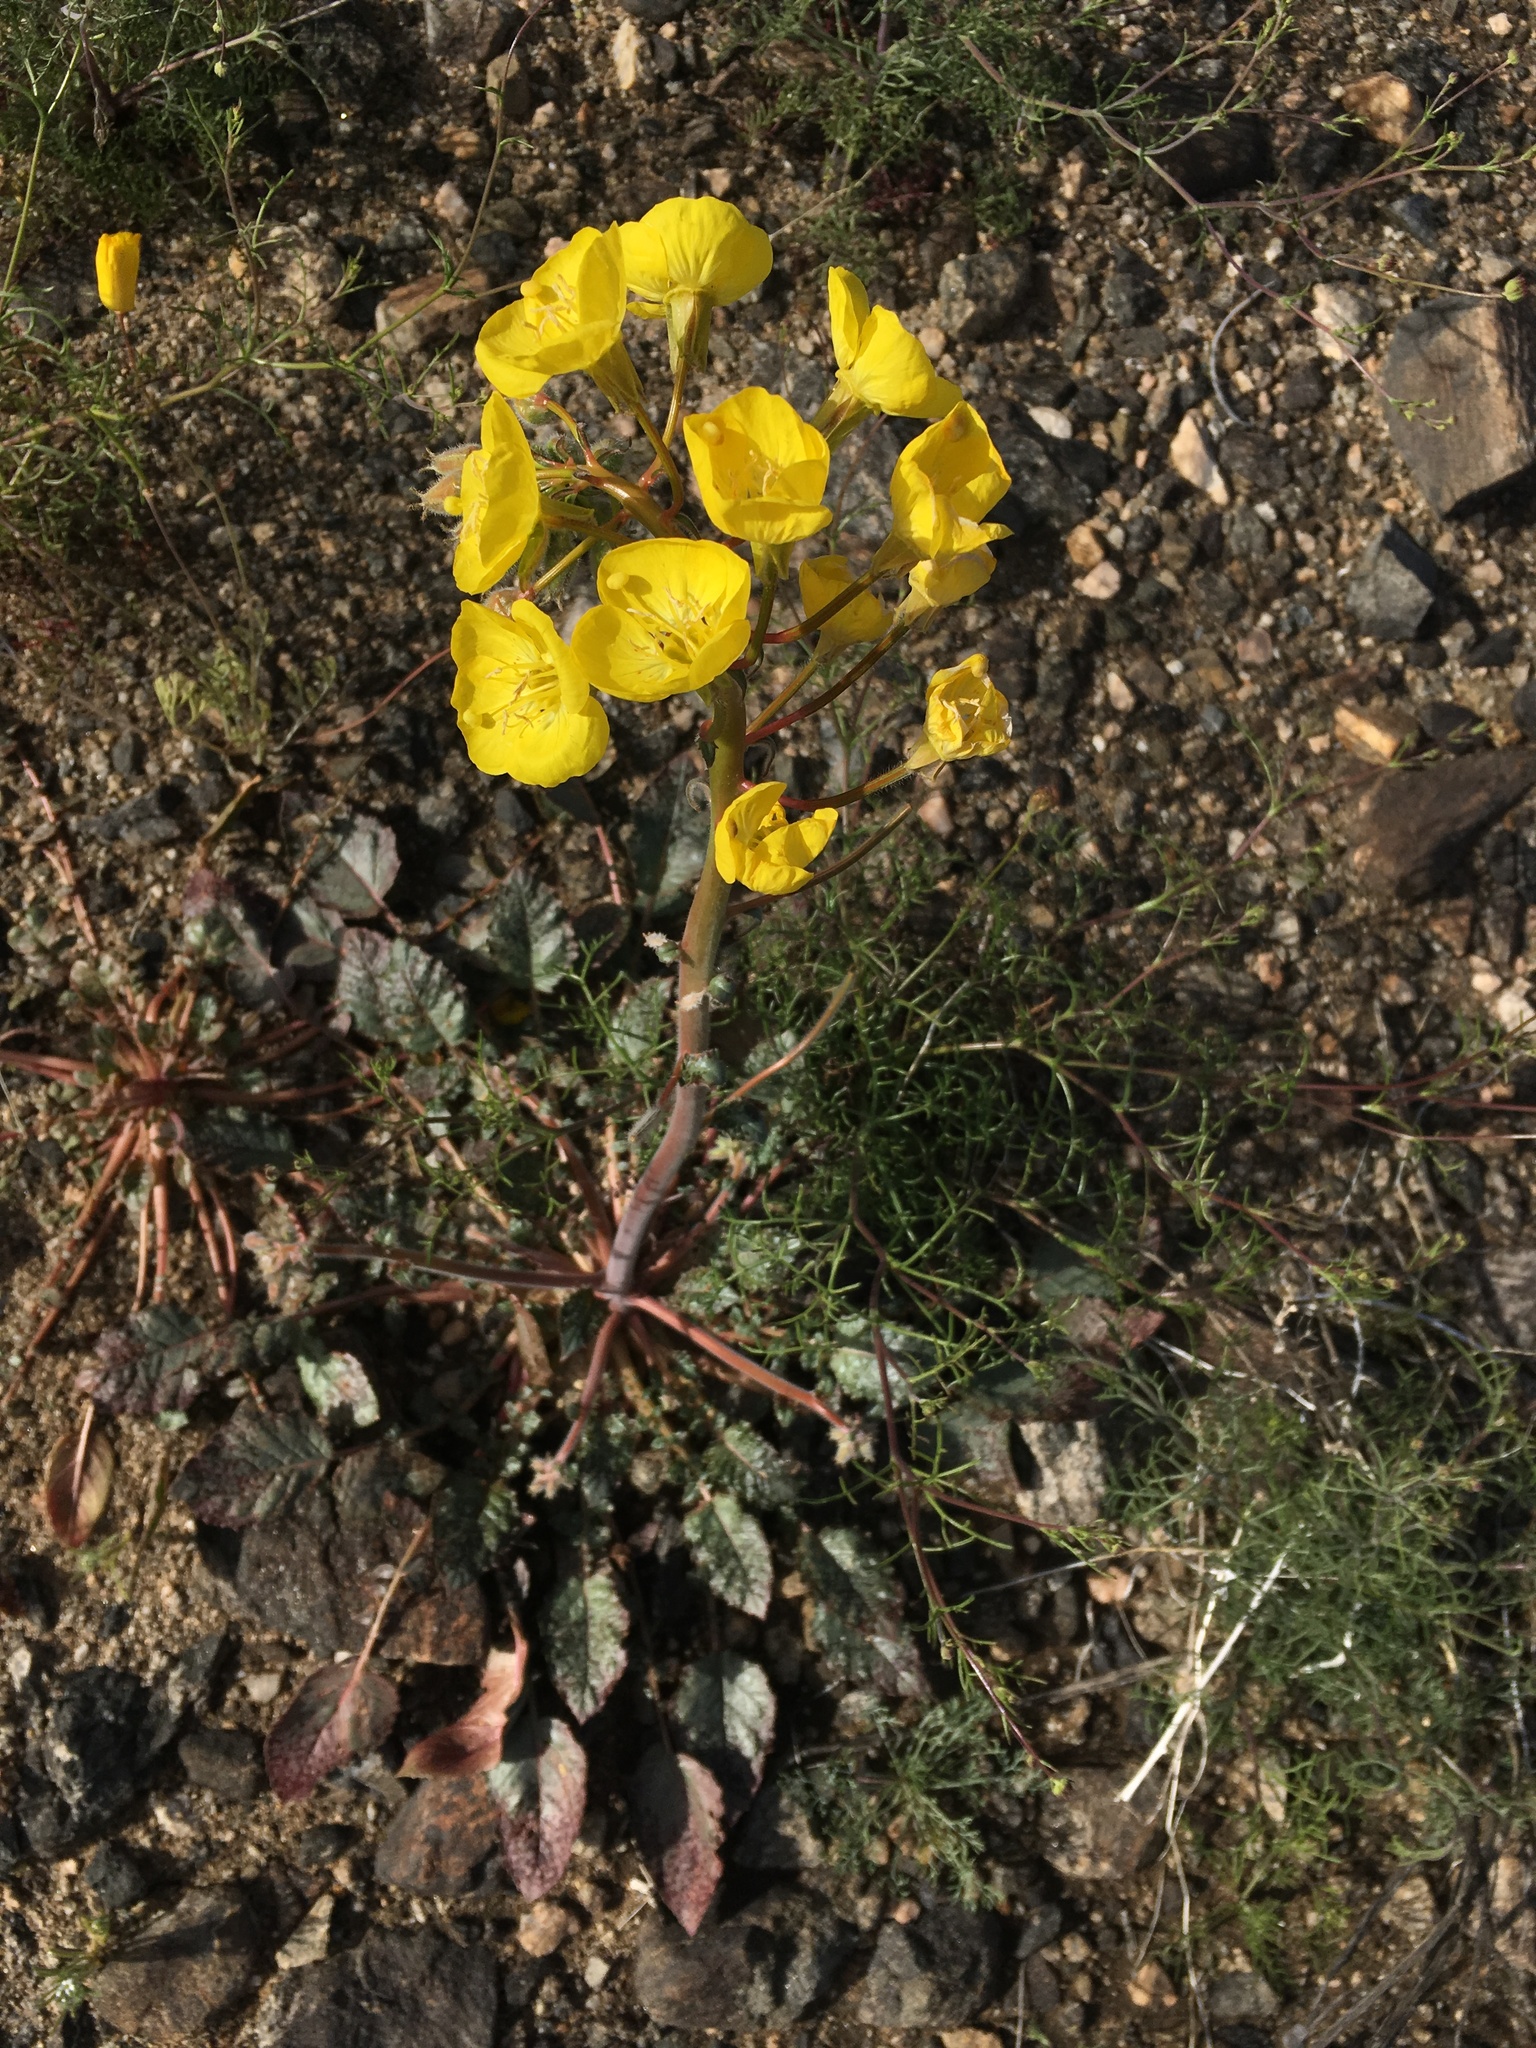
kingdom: Plantae
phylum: Tracheophyta
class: Magnoliopsida
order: Myrtales
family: Onagraceae
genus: Chylismia
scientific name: Chylismia brevipes
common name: Yellow cups
